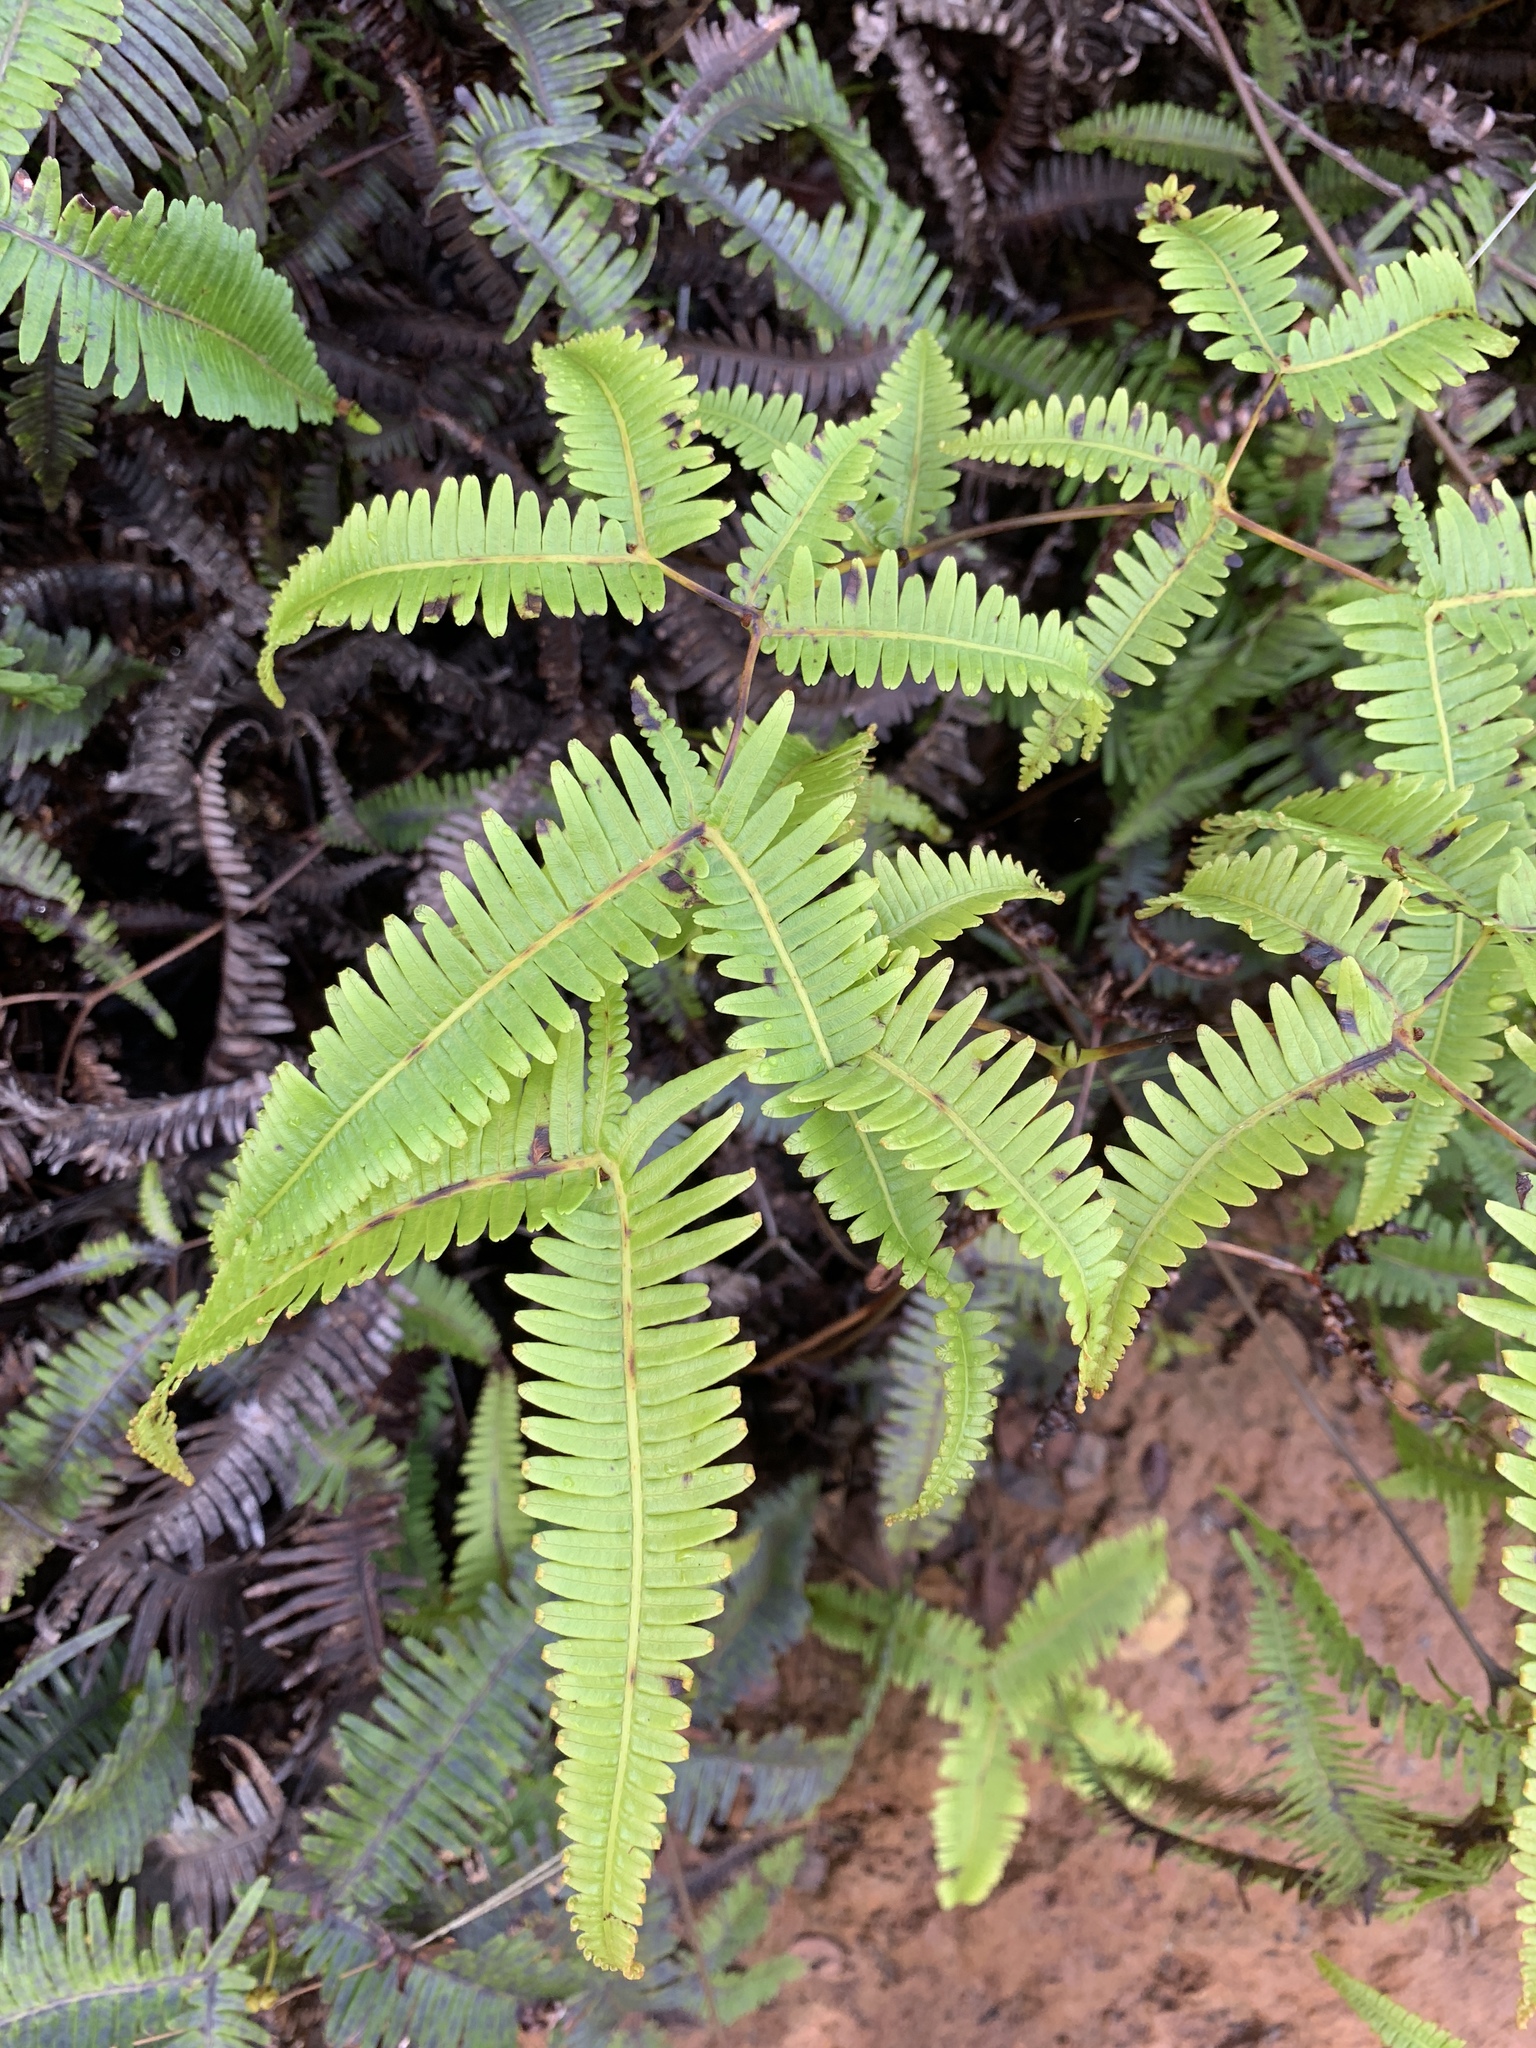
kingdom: Plantae
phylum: Tracheophyta
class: Polypodiopsida
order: Gleicheniales
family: Gleicheniaceae
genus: Dicranopteris
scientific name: Dicranopteris linearis
